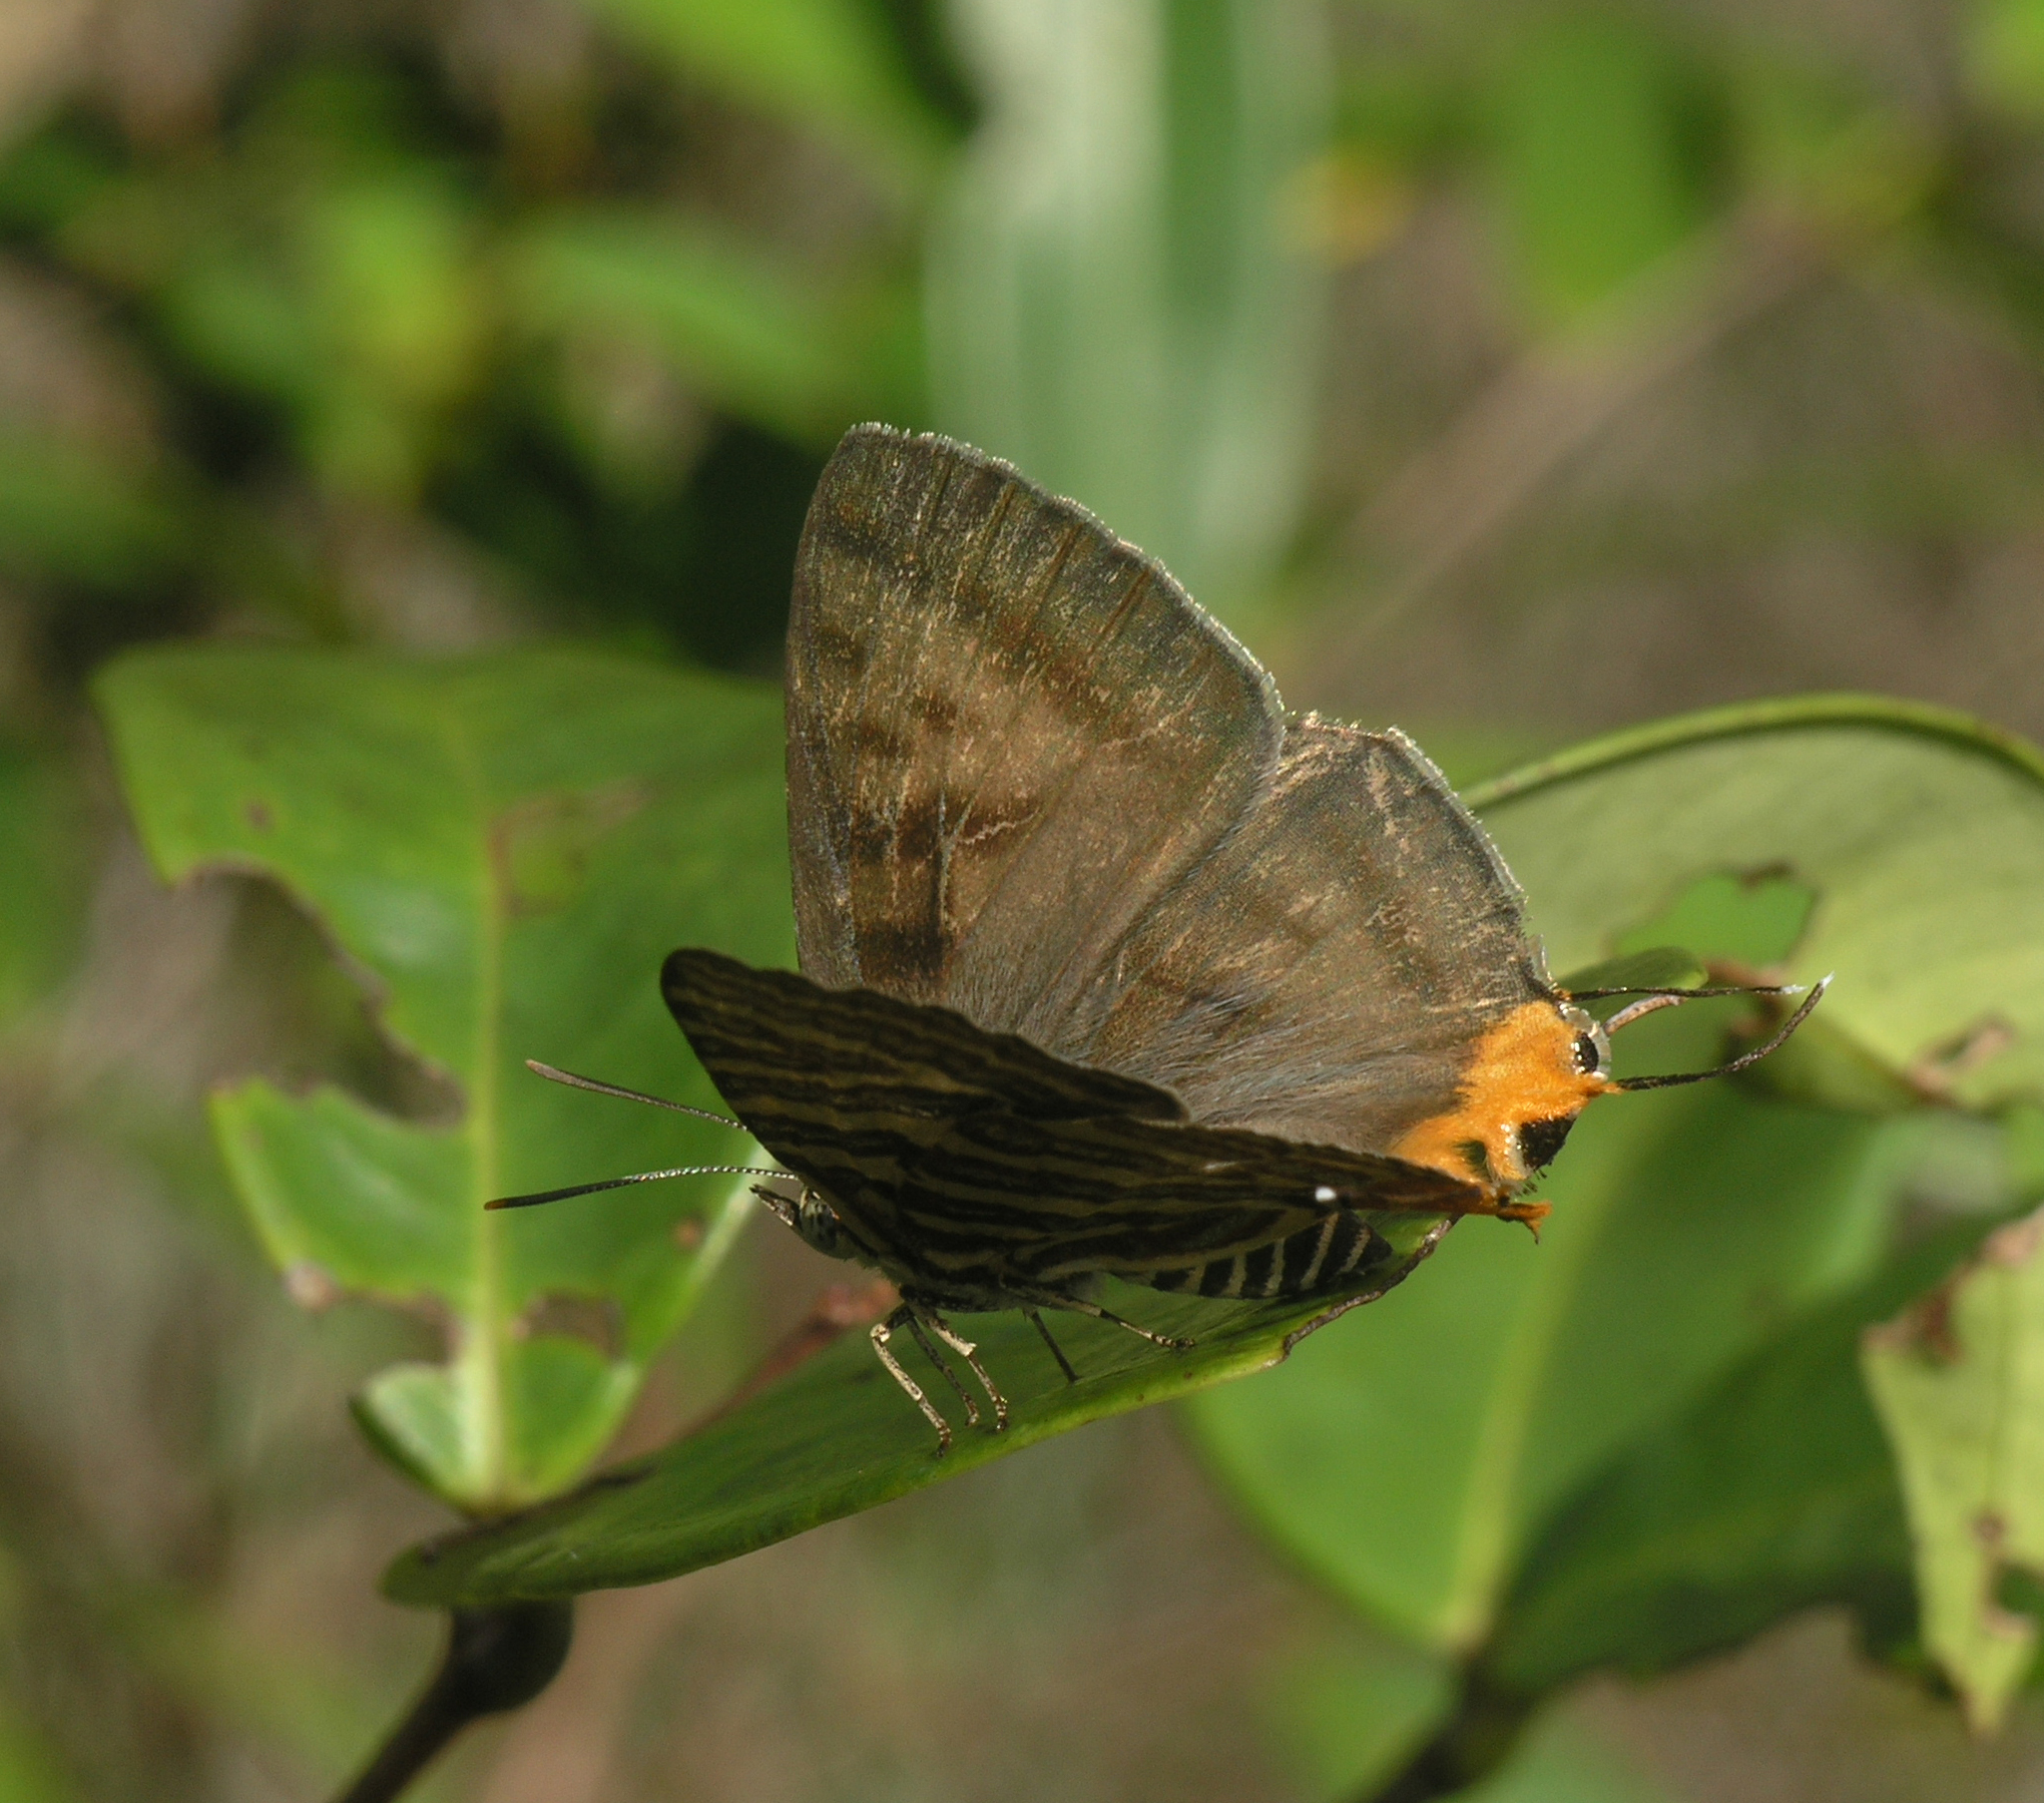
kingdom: Animalia
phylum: Arthropoda
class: Insecta
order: Lepidoptera
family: Lycaenidae
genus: Cigaritis
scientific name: Cigaritis lohita
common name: Long-banded silverline
